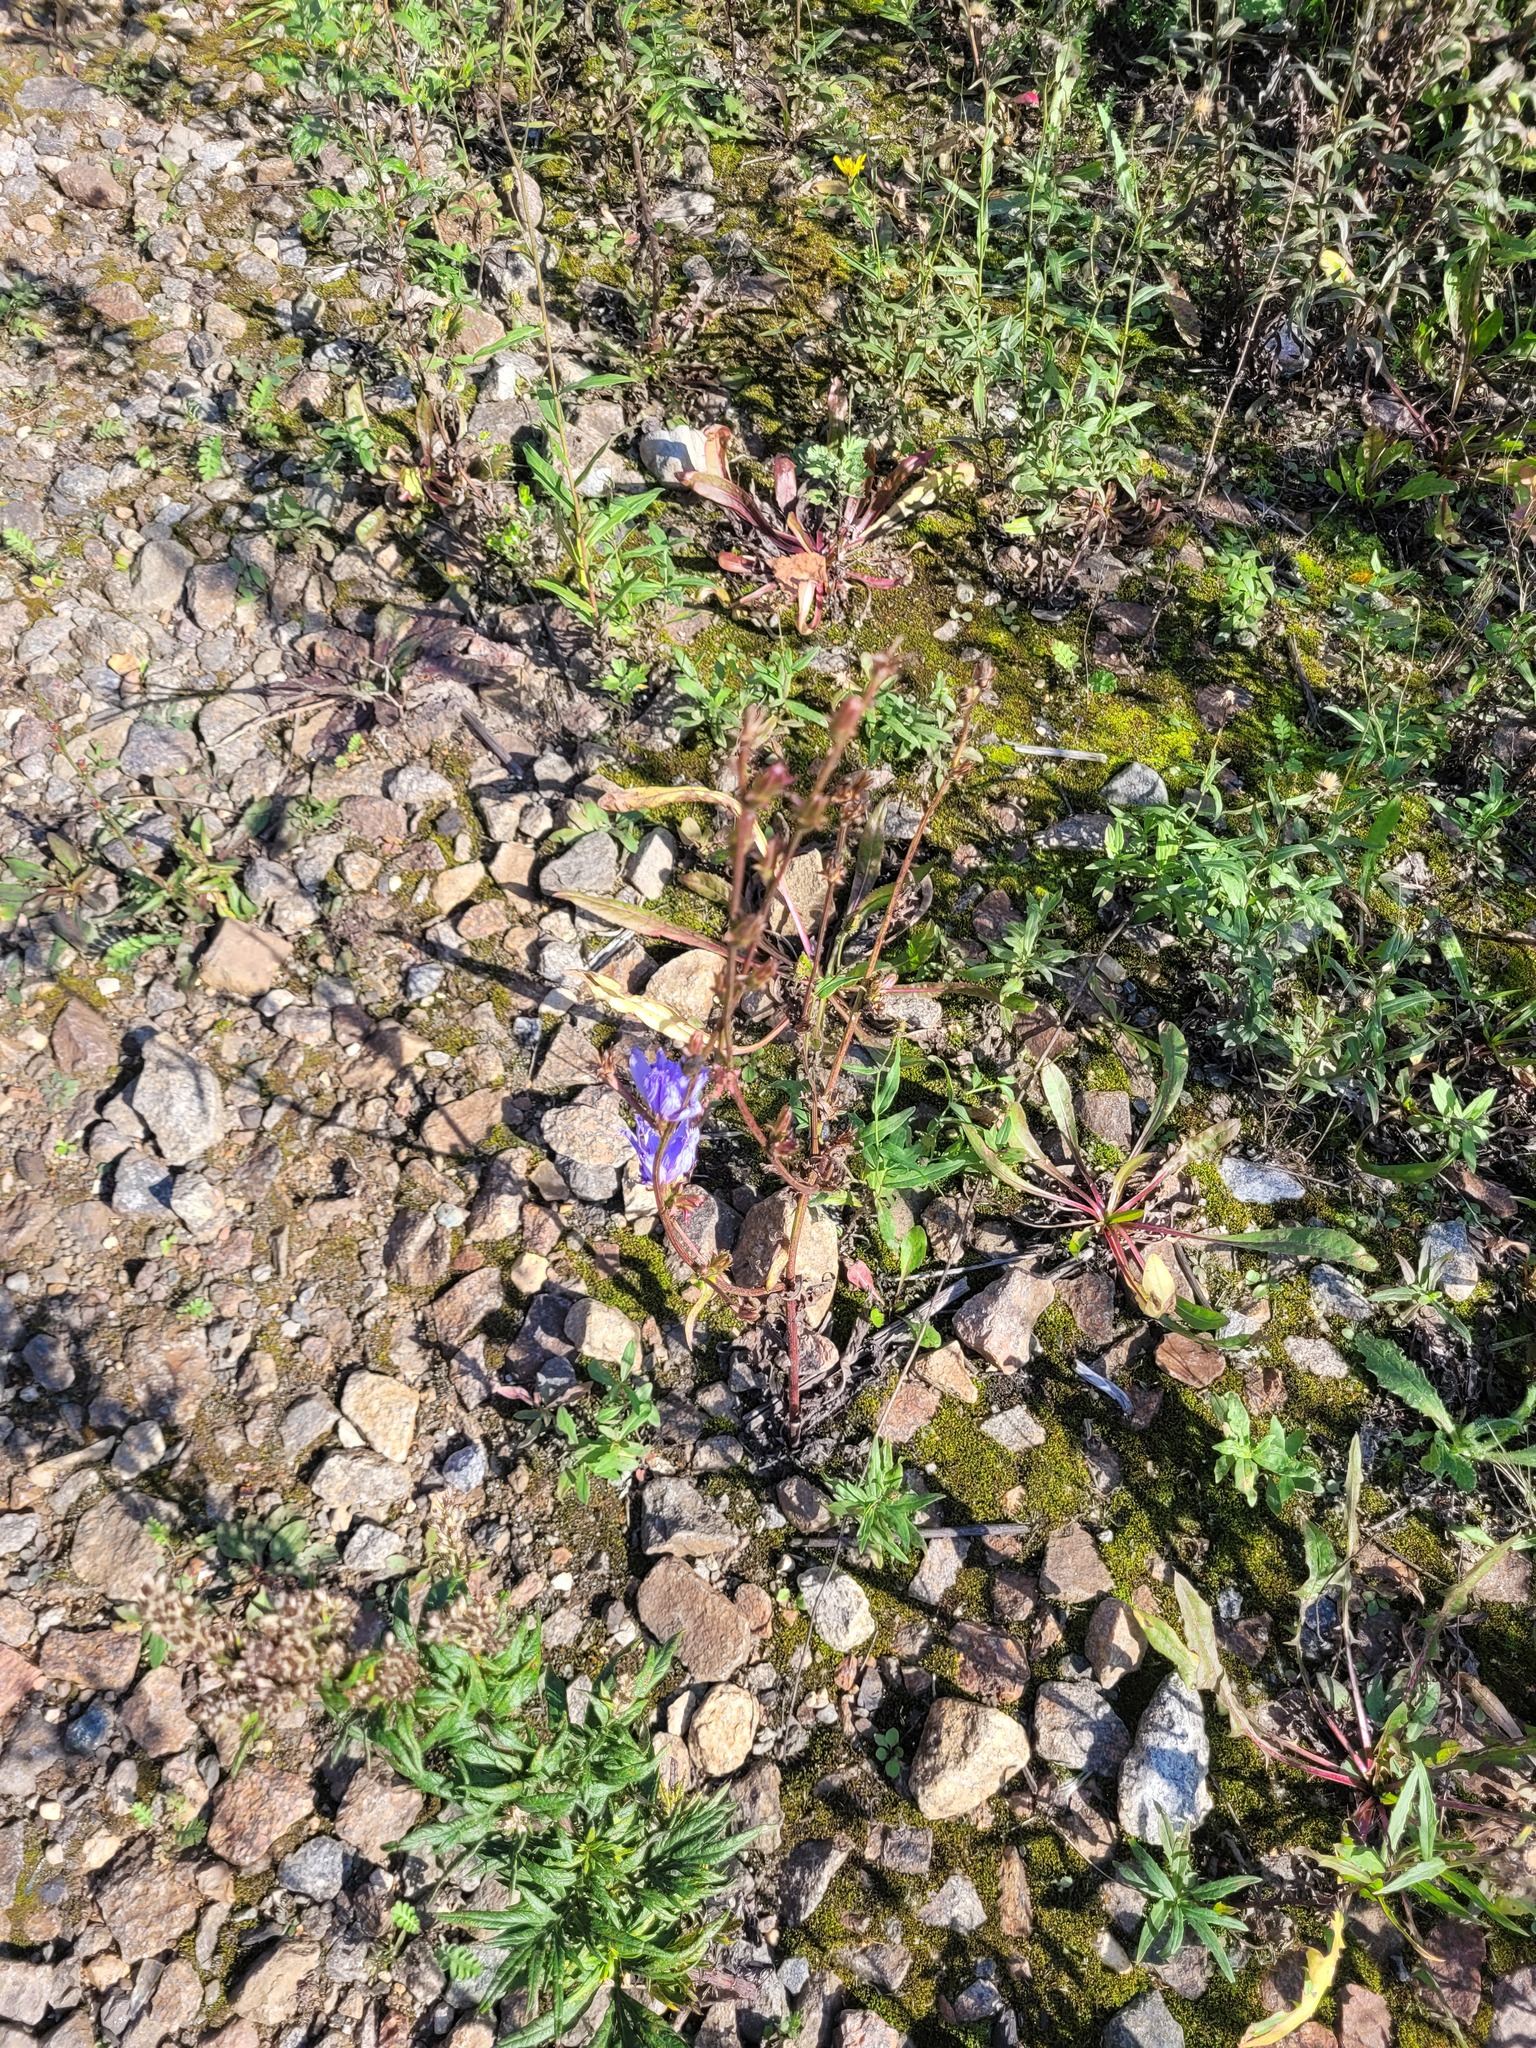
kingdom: Plantae
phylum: Tracheophyta
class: Magnoliopsida
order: Asterales
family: Asteraceae
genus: Cichorium
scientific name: Cichorium intybus
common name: Chicory
